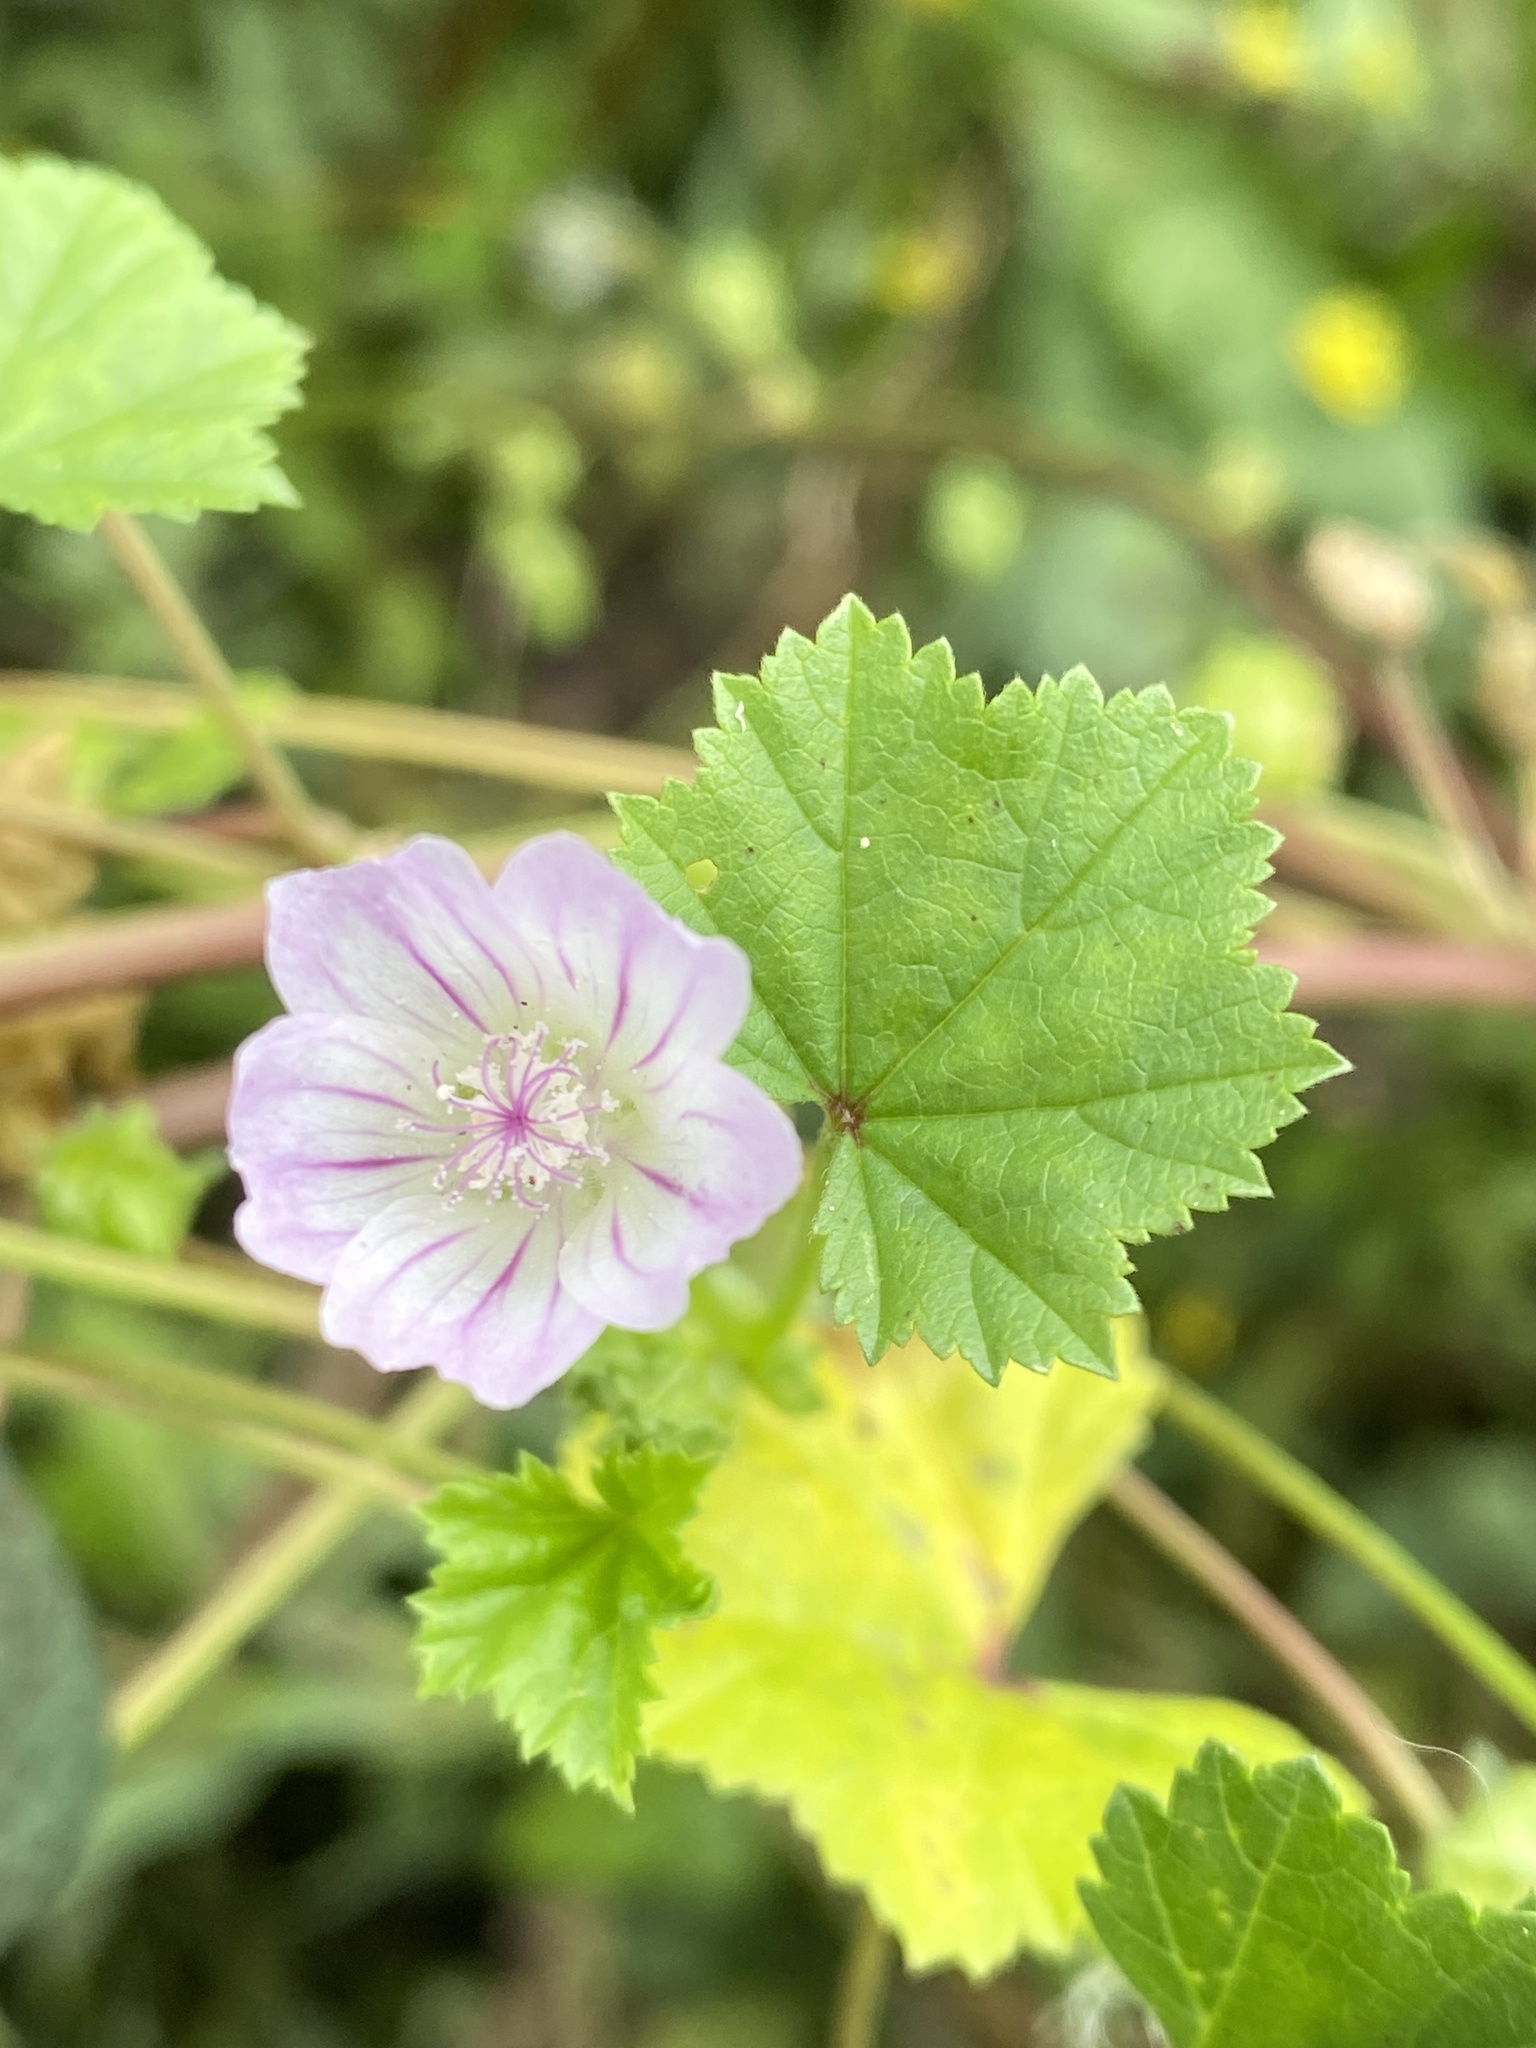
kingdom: Plantae
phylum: Tracheophyta
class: Magnoliopsida
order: Malvales
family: Malvaceae
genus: Malva
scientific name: Malva neglecta
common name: Common mallow
